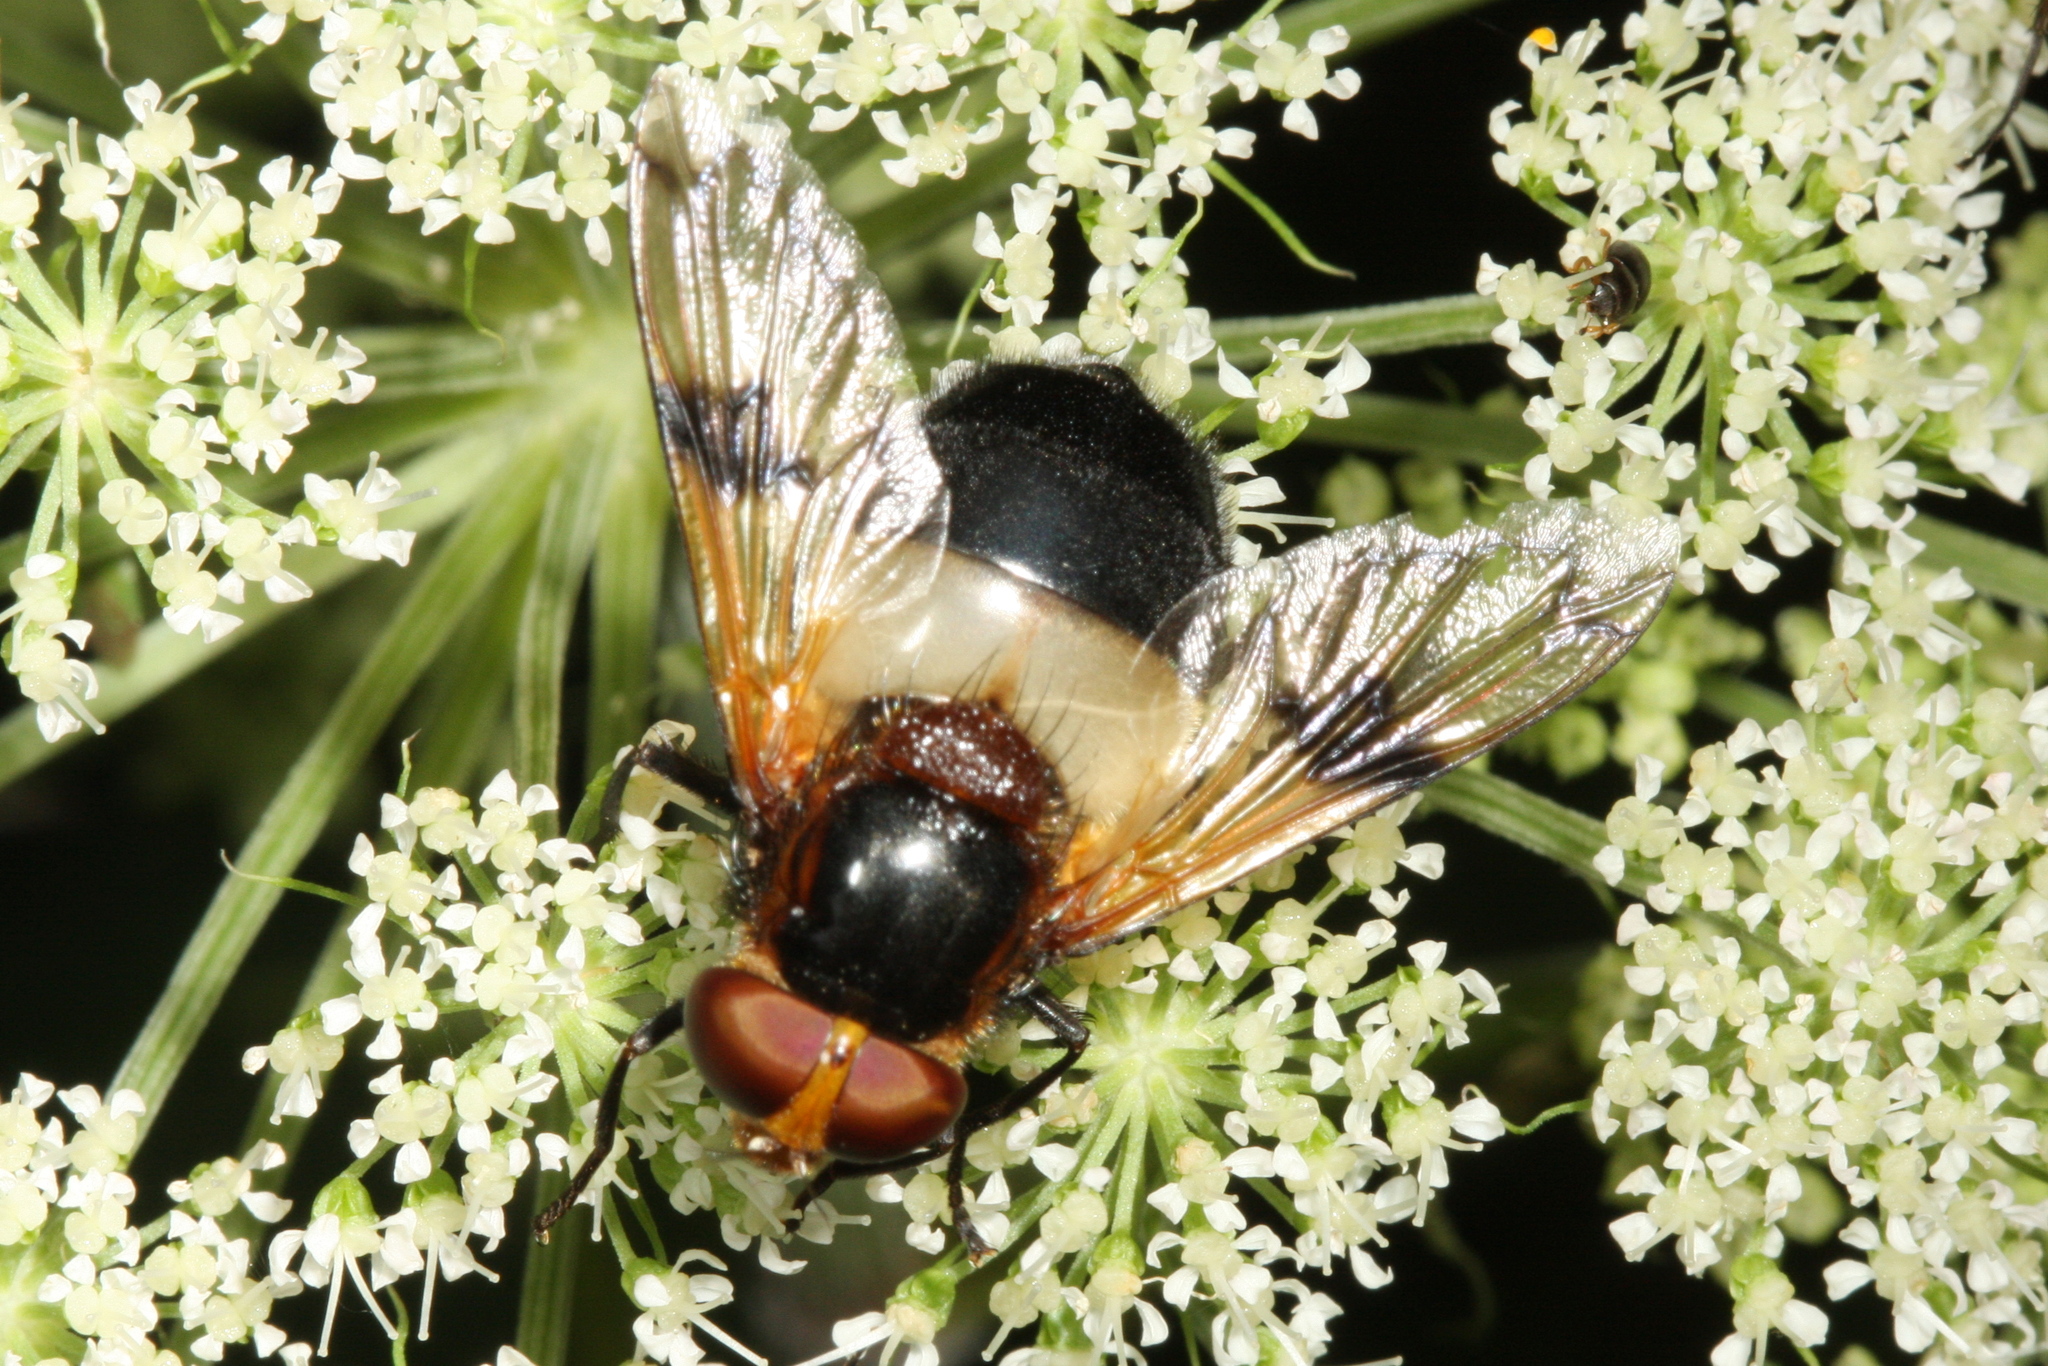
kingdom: Animalia
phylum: Arthropoda
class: Insecta
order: Diptera
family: Syrphidae
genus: Volucella
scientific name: Volucella pellucens
